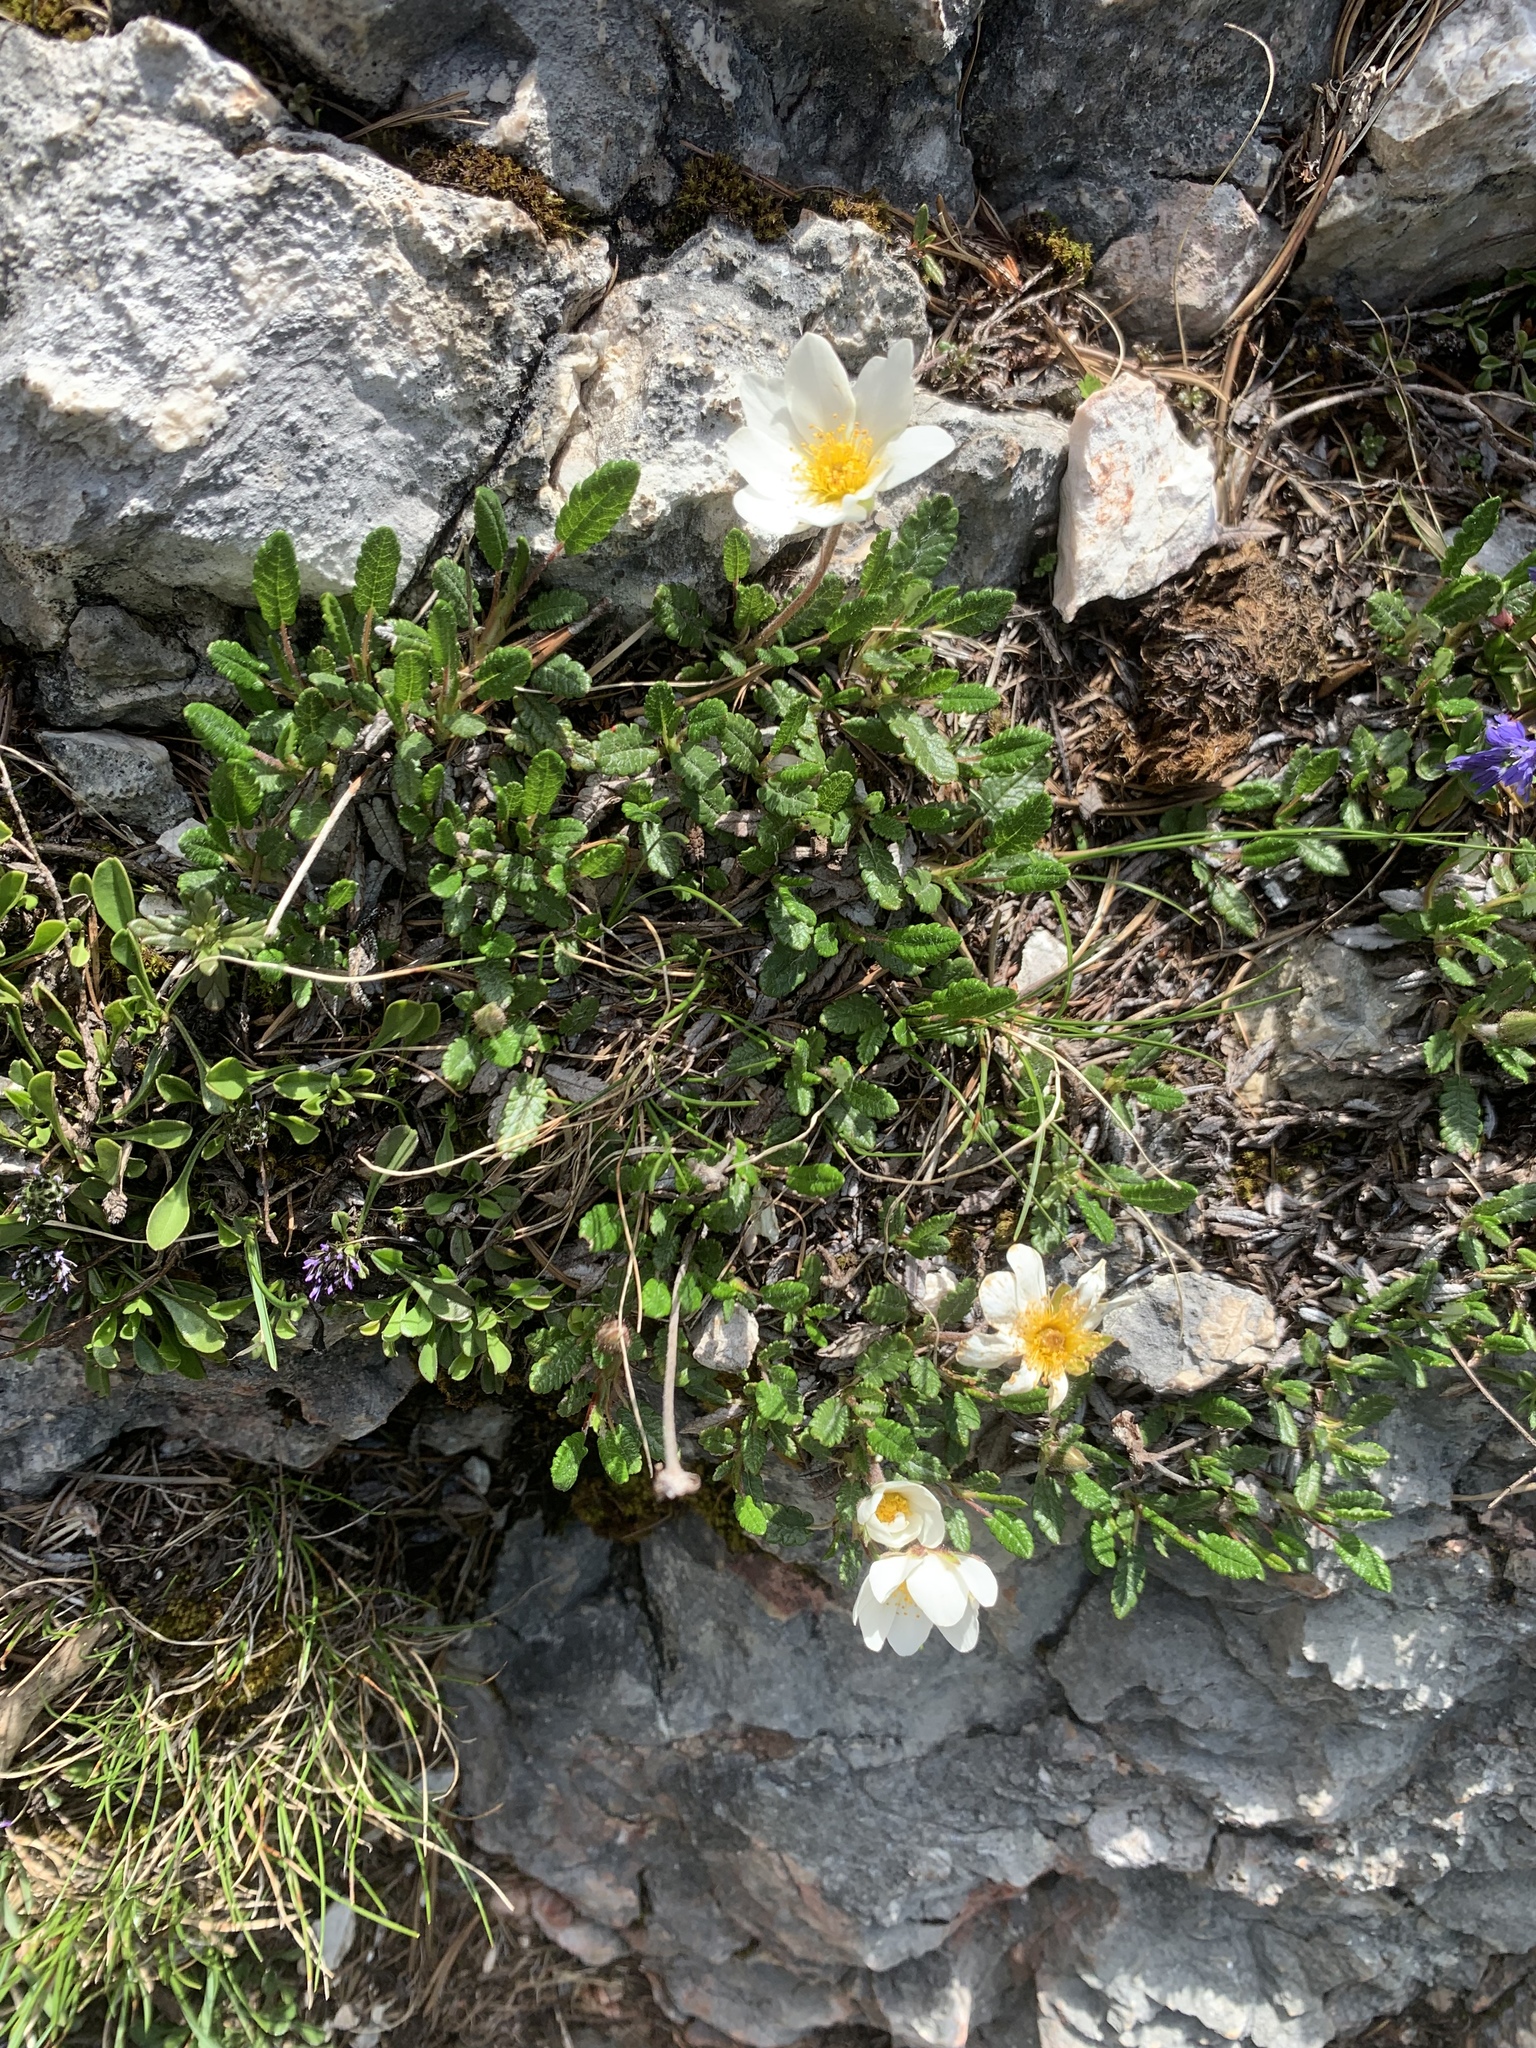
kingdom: Plantae
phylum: Tracheophyta
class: Magnoliopsida
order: Rosales
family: Rosaceae
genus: Dryas
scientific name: Dryas octopetala
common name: Eight-petal mountain-avens
